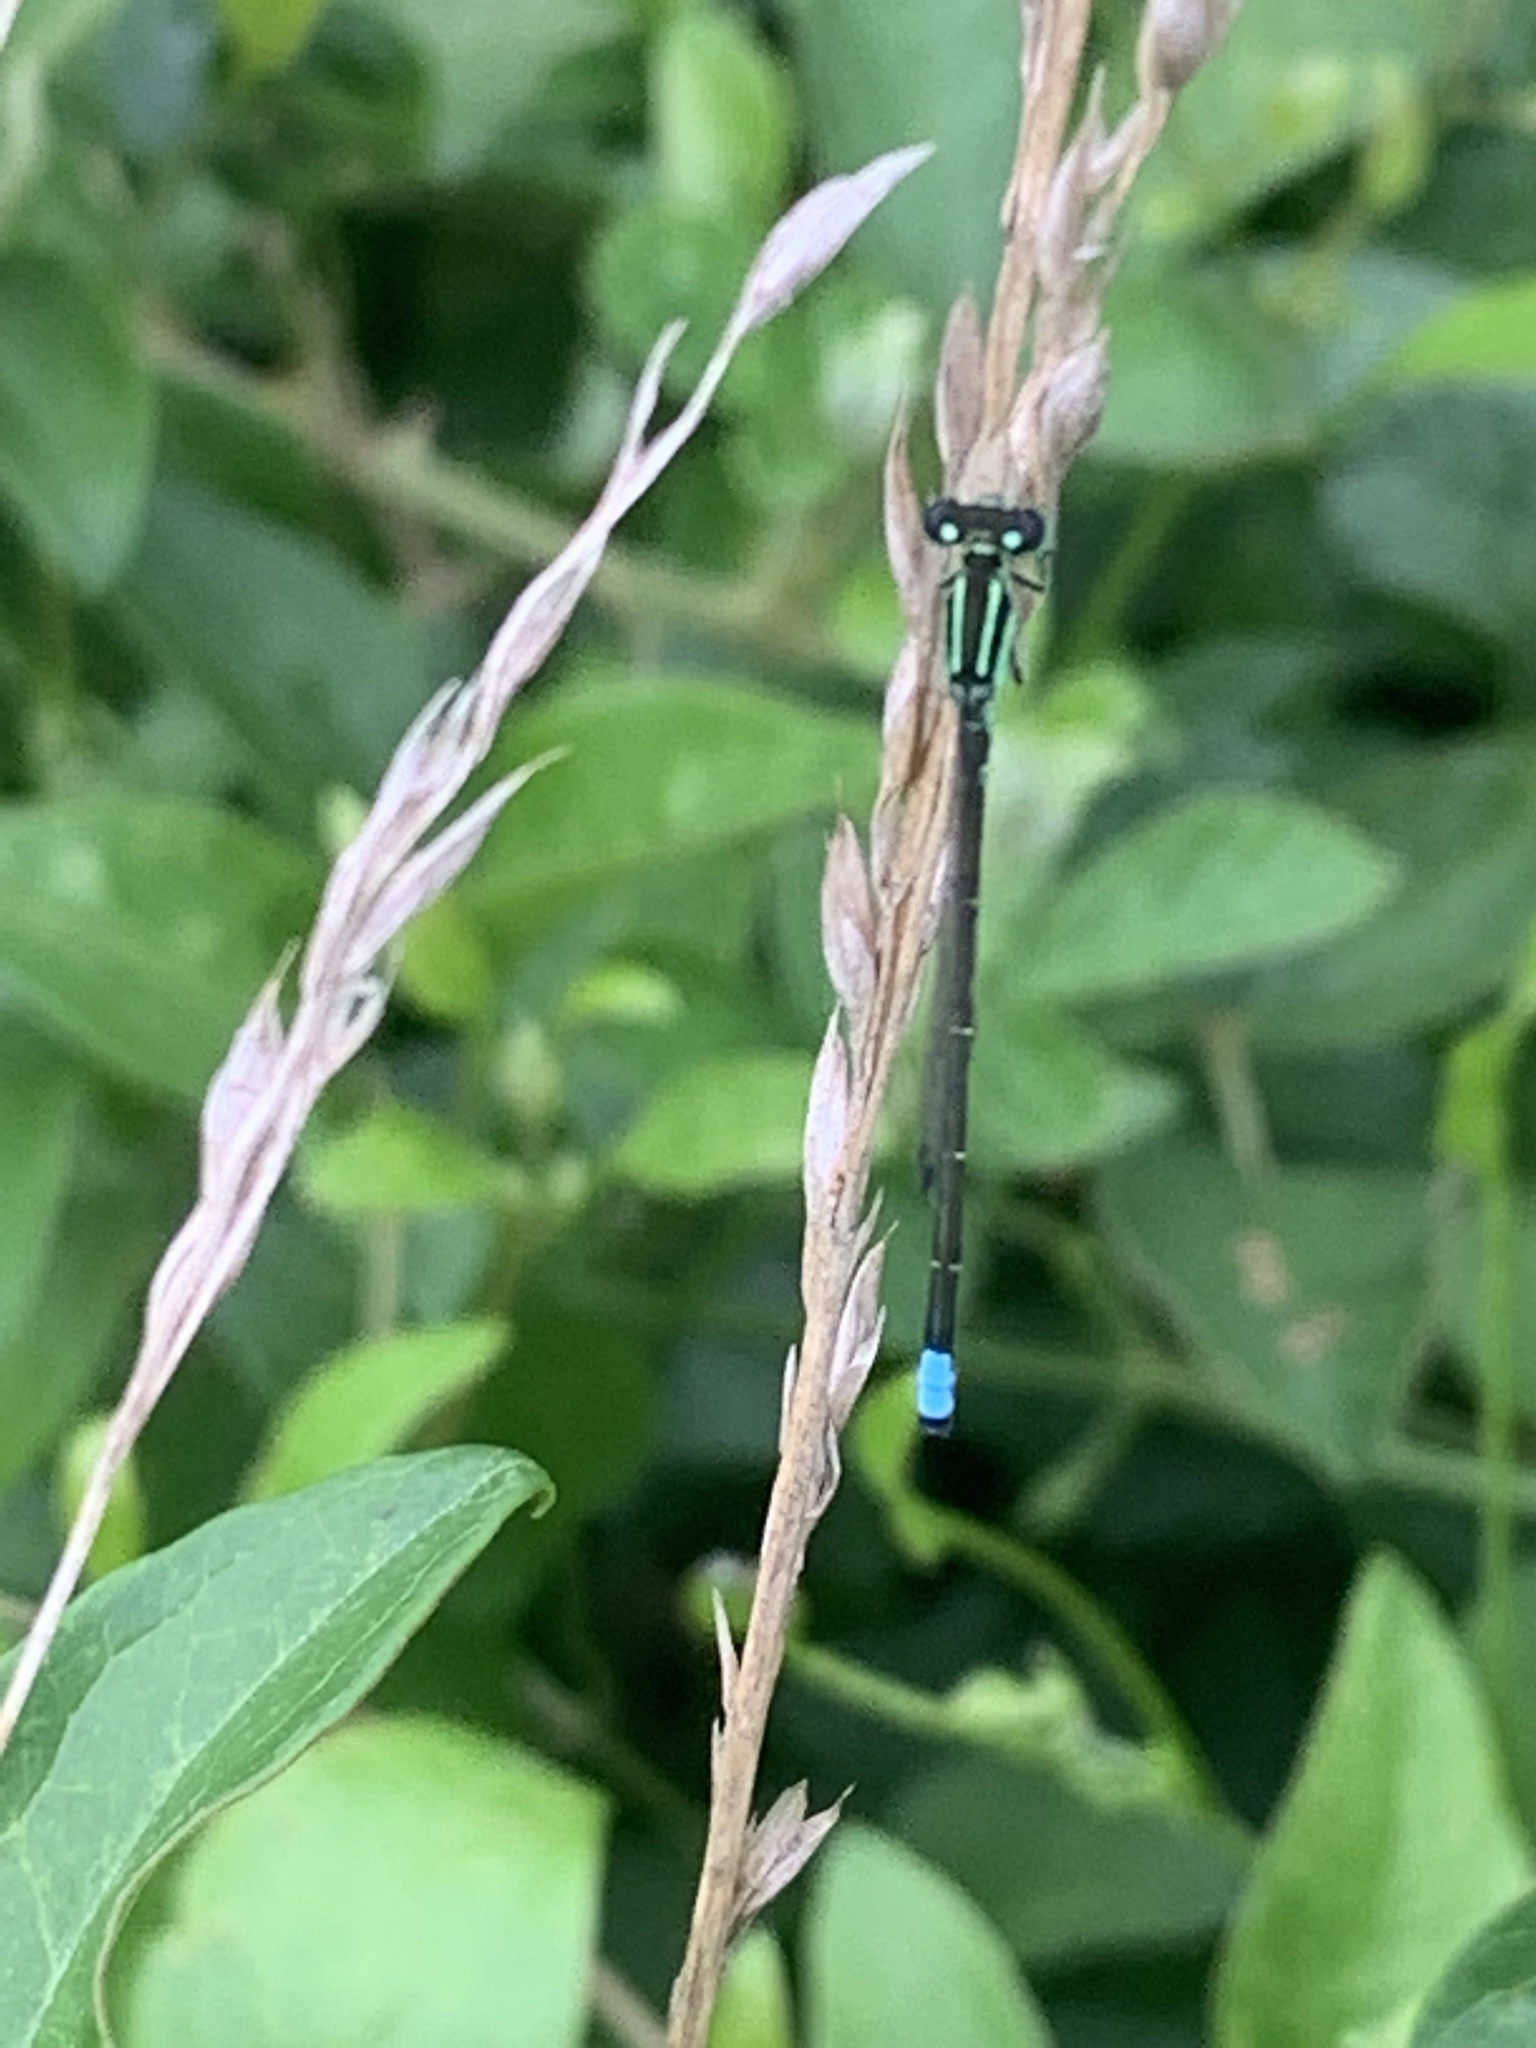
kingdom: Animalia
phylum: Arthropoda
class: Insecta
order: Odonata
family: Coenagrionidae
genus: Ischnura
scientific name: Ischnura verticalis
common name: Eastern forktail
